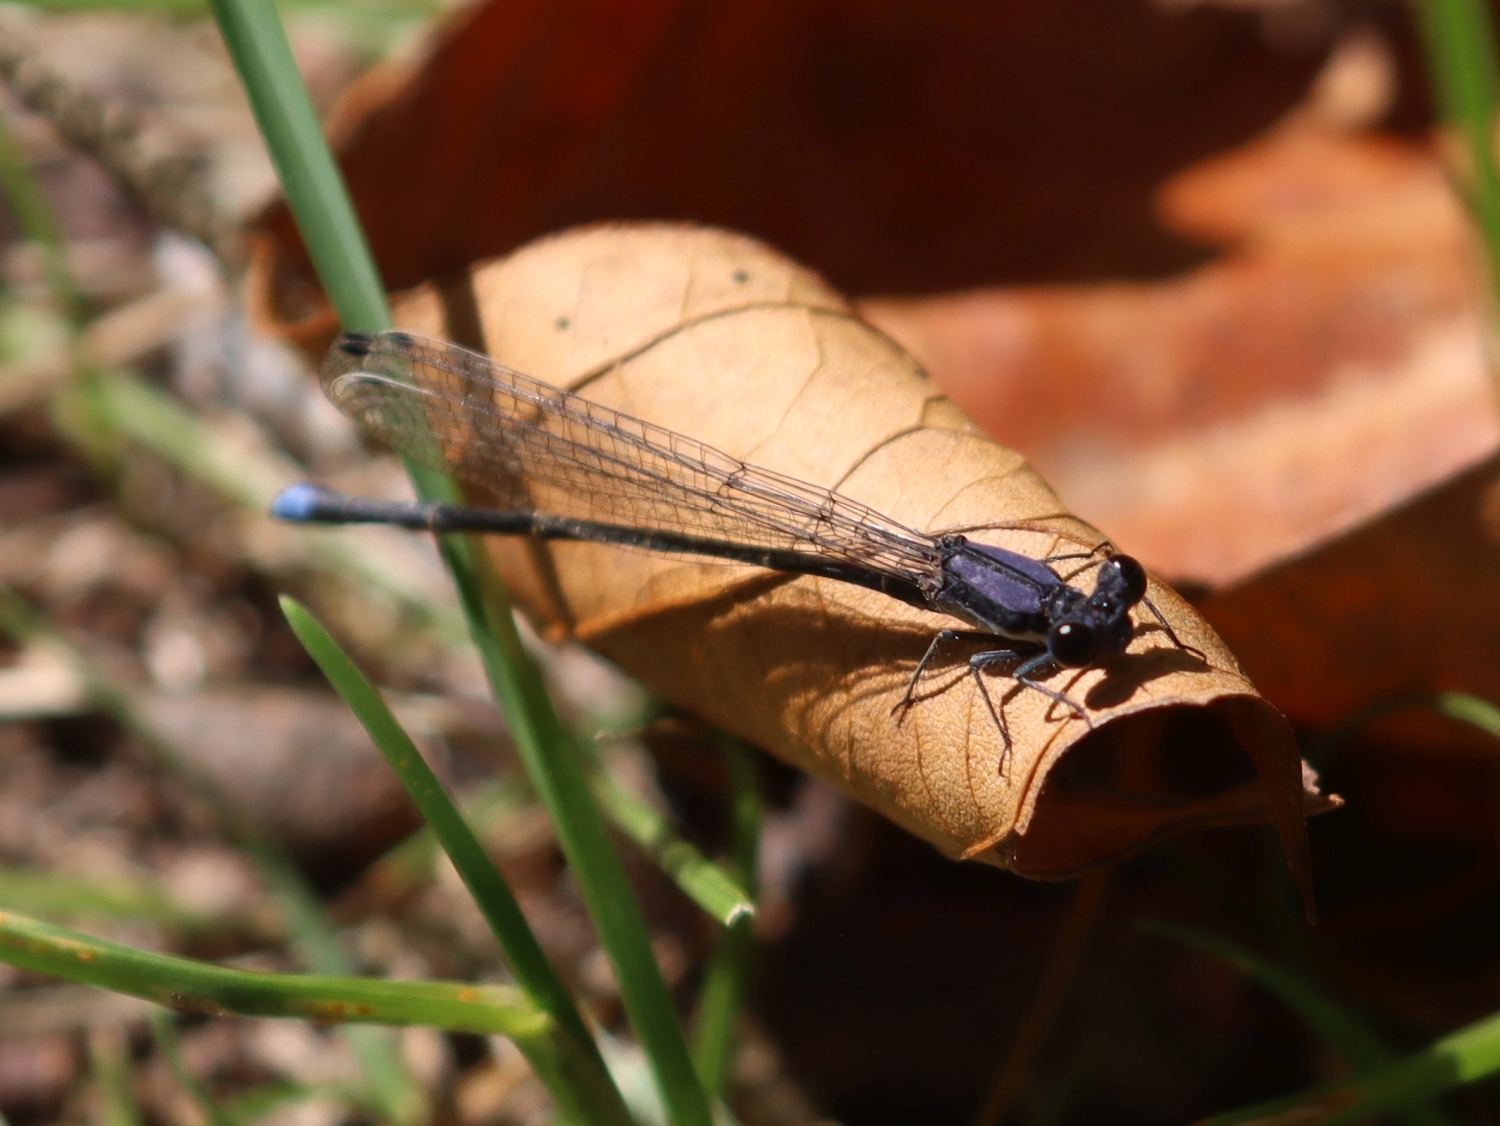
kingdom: Animalia
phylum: Arthropoda
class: Insecta
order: Odonata
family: Coenagrionidae
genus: Argia
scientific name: Argia tibialis
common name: Blue-tipped dancer
